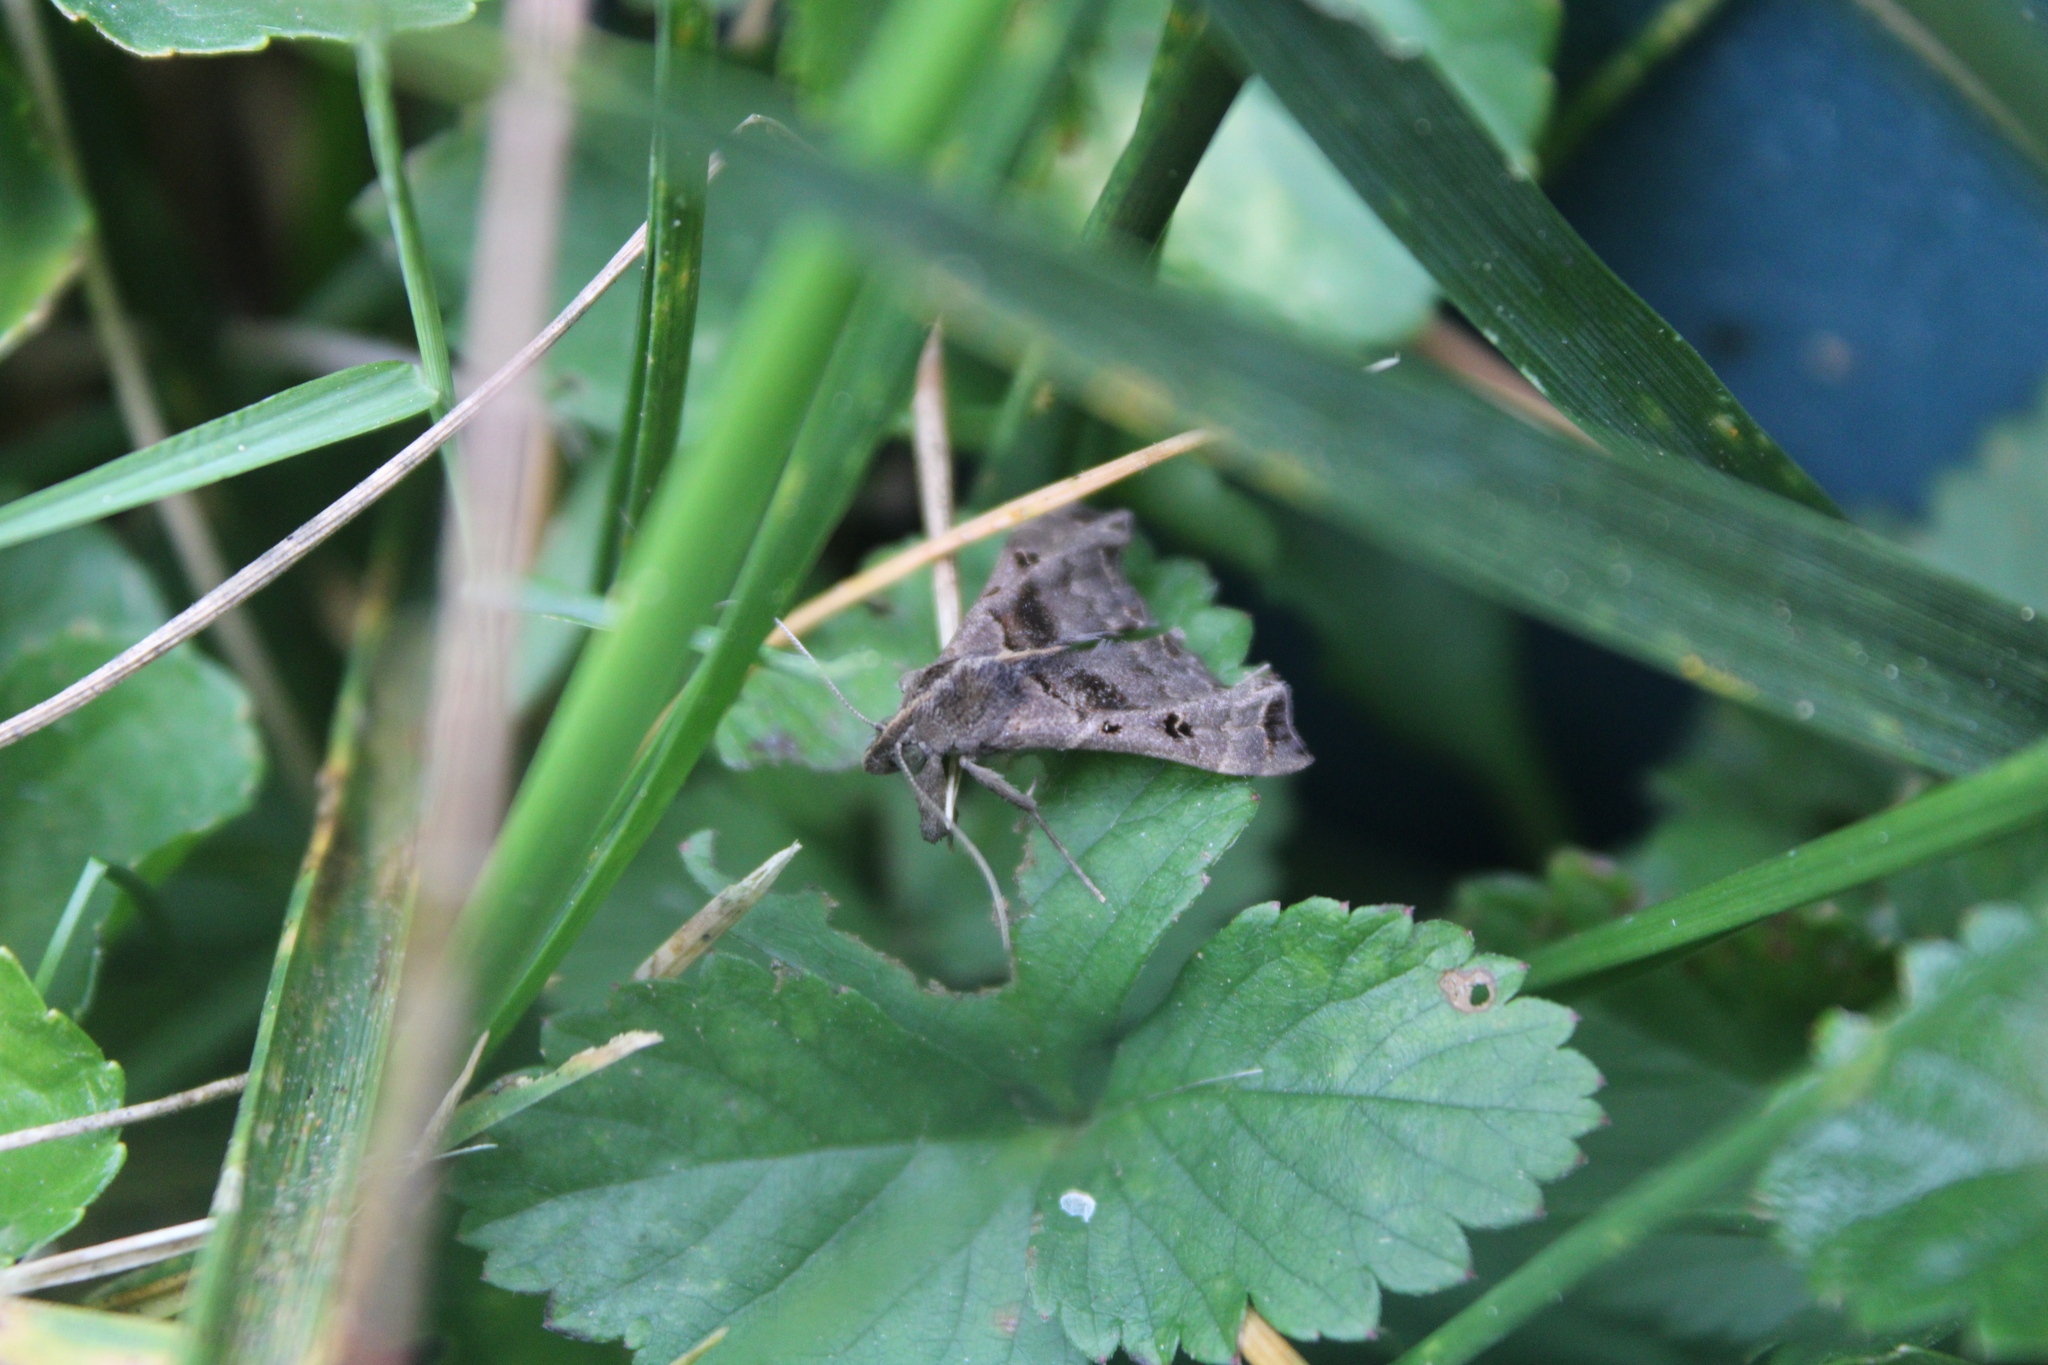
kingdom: Animalia
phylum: Arthropoda
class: Insecta
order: Lepidoptera
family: Erebidae
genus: Palthis
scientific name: Palthis asopialis
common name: Faint-spotted palthis moth
